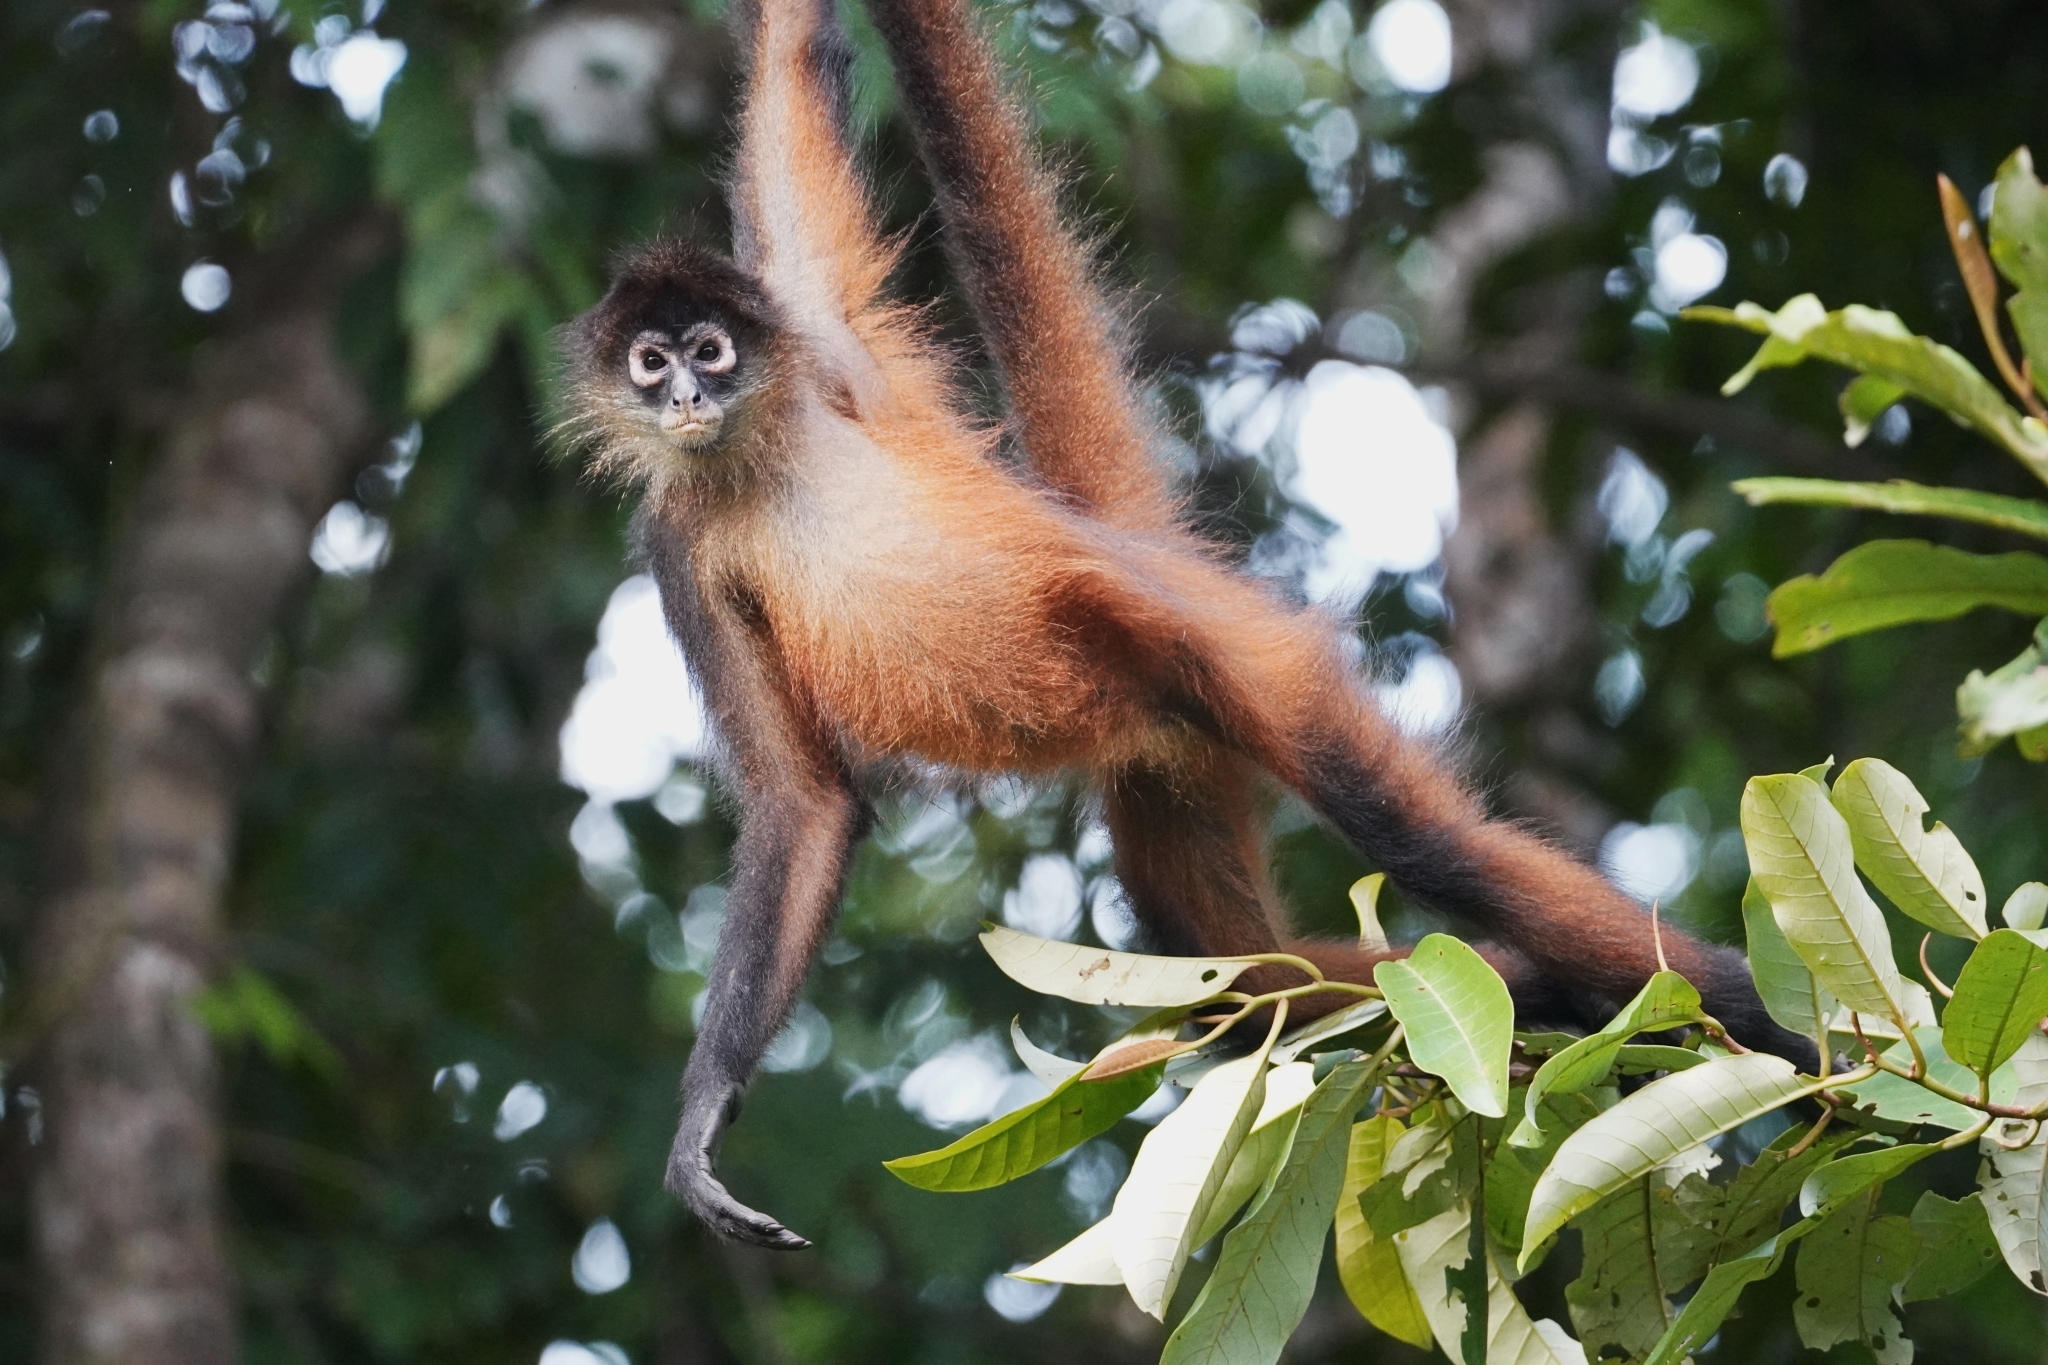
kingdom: Animalia
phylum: Chordata
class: Mammalia
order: Primates
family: Atelidae
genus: Ateles
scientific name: Ateles geoffroyi
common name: Black-handed spider monkey
